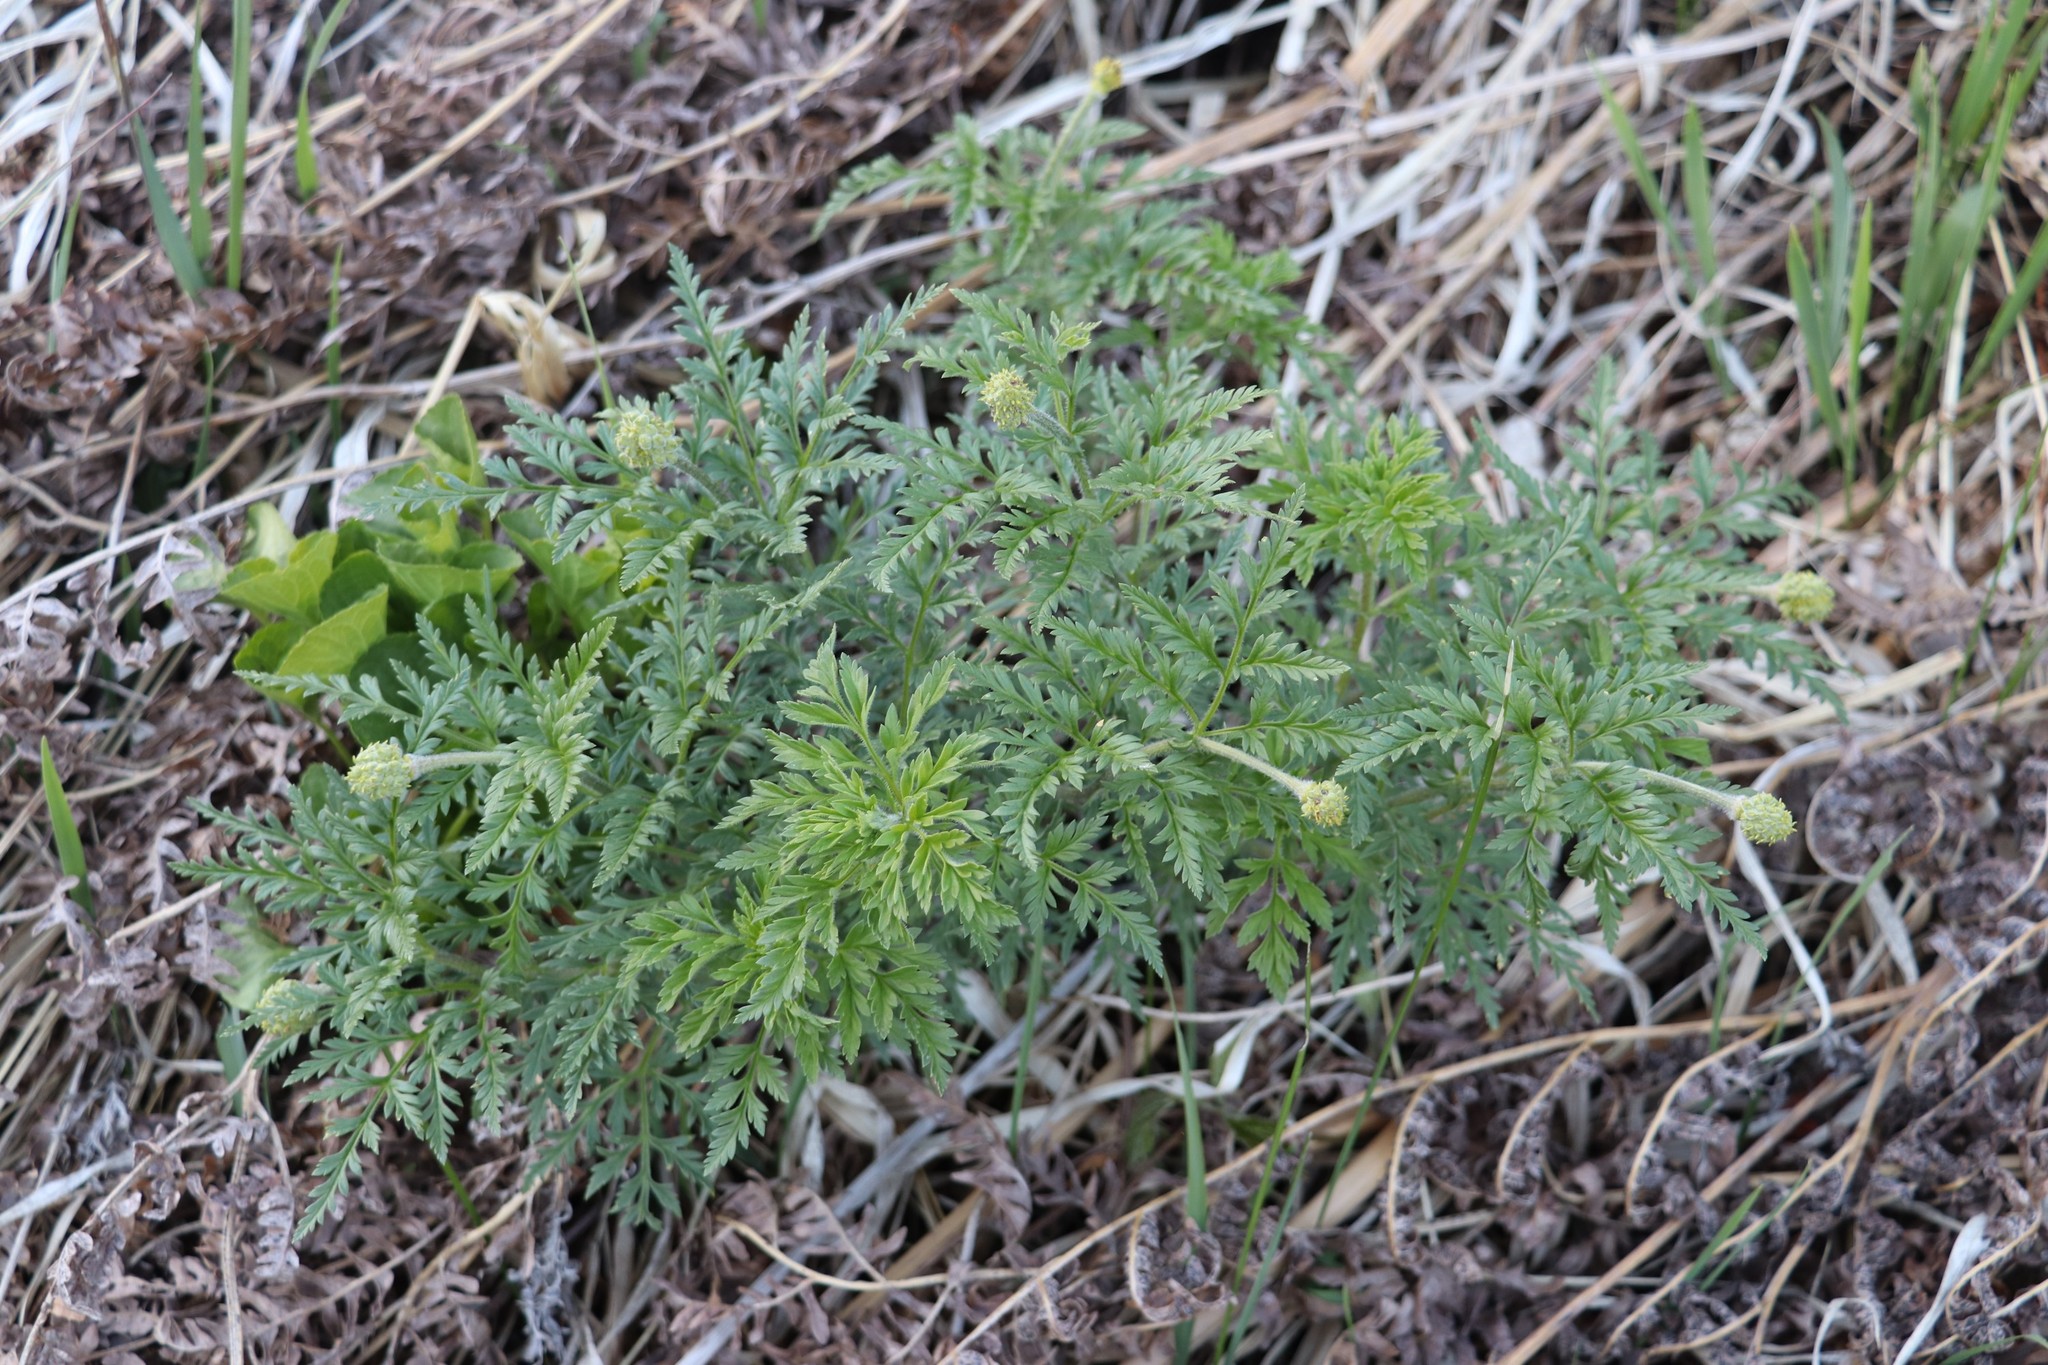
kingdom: Plantae
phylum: Tracheophyta
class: Magnoliopsida
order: Ranunculales
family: Ranunculaceae
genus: Adonis
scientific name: Adonis villosa
